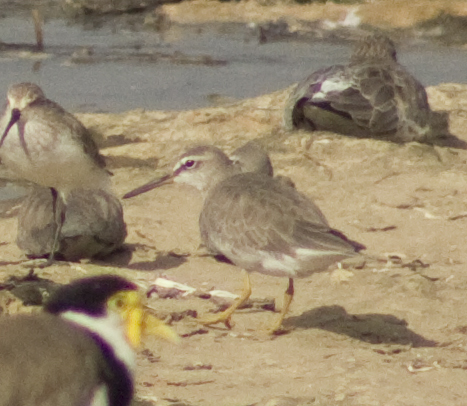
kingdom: Animalia
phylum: Chordata
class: Aves
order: Charadriiformes
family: Scolopacidae
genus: Tringa
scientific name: Tringa brevipes
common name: Grey-tailed tattler
